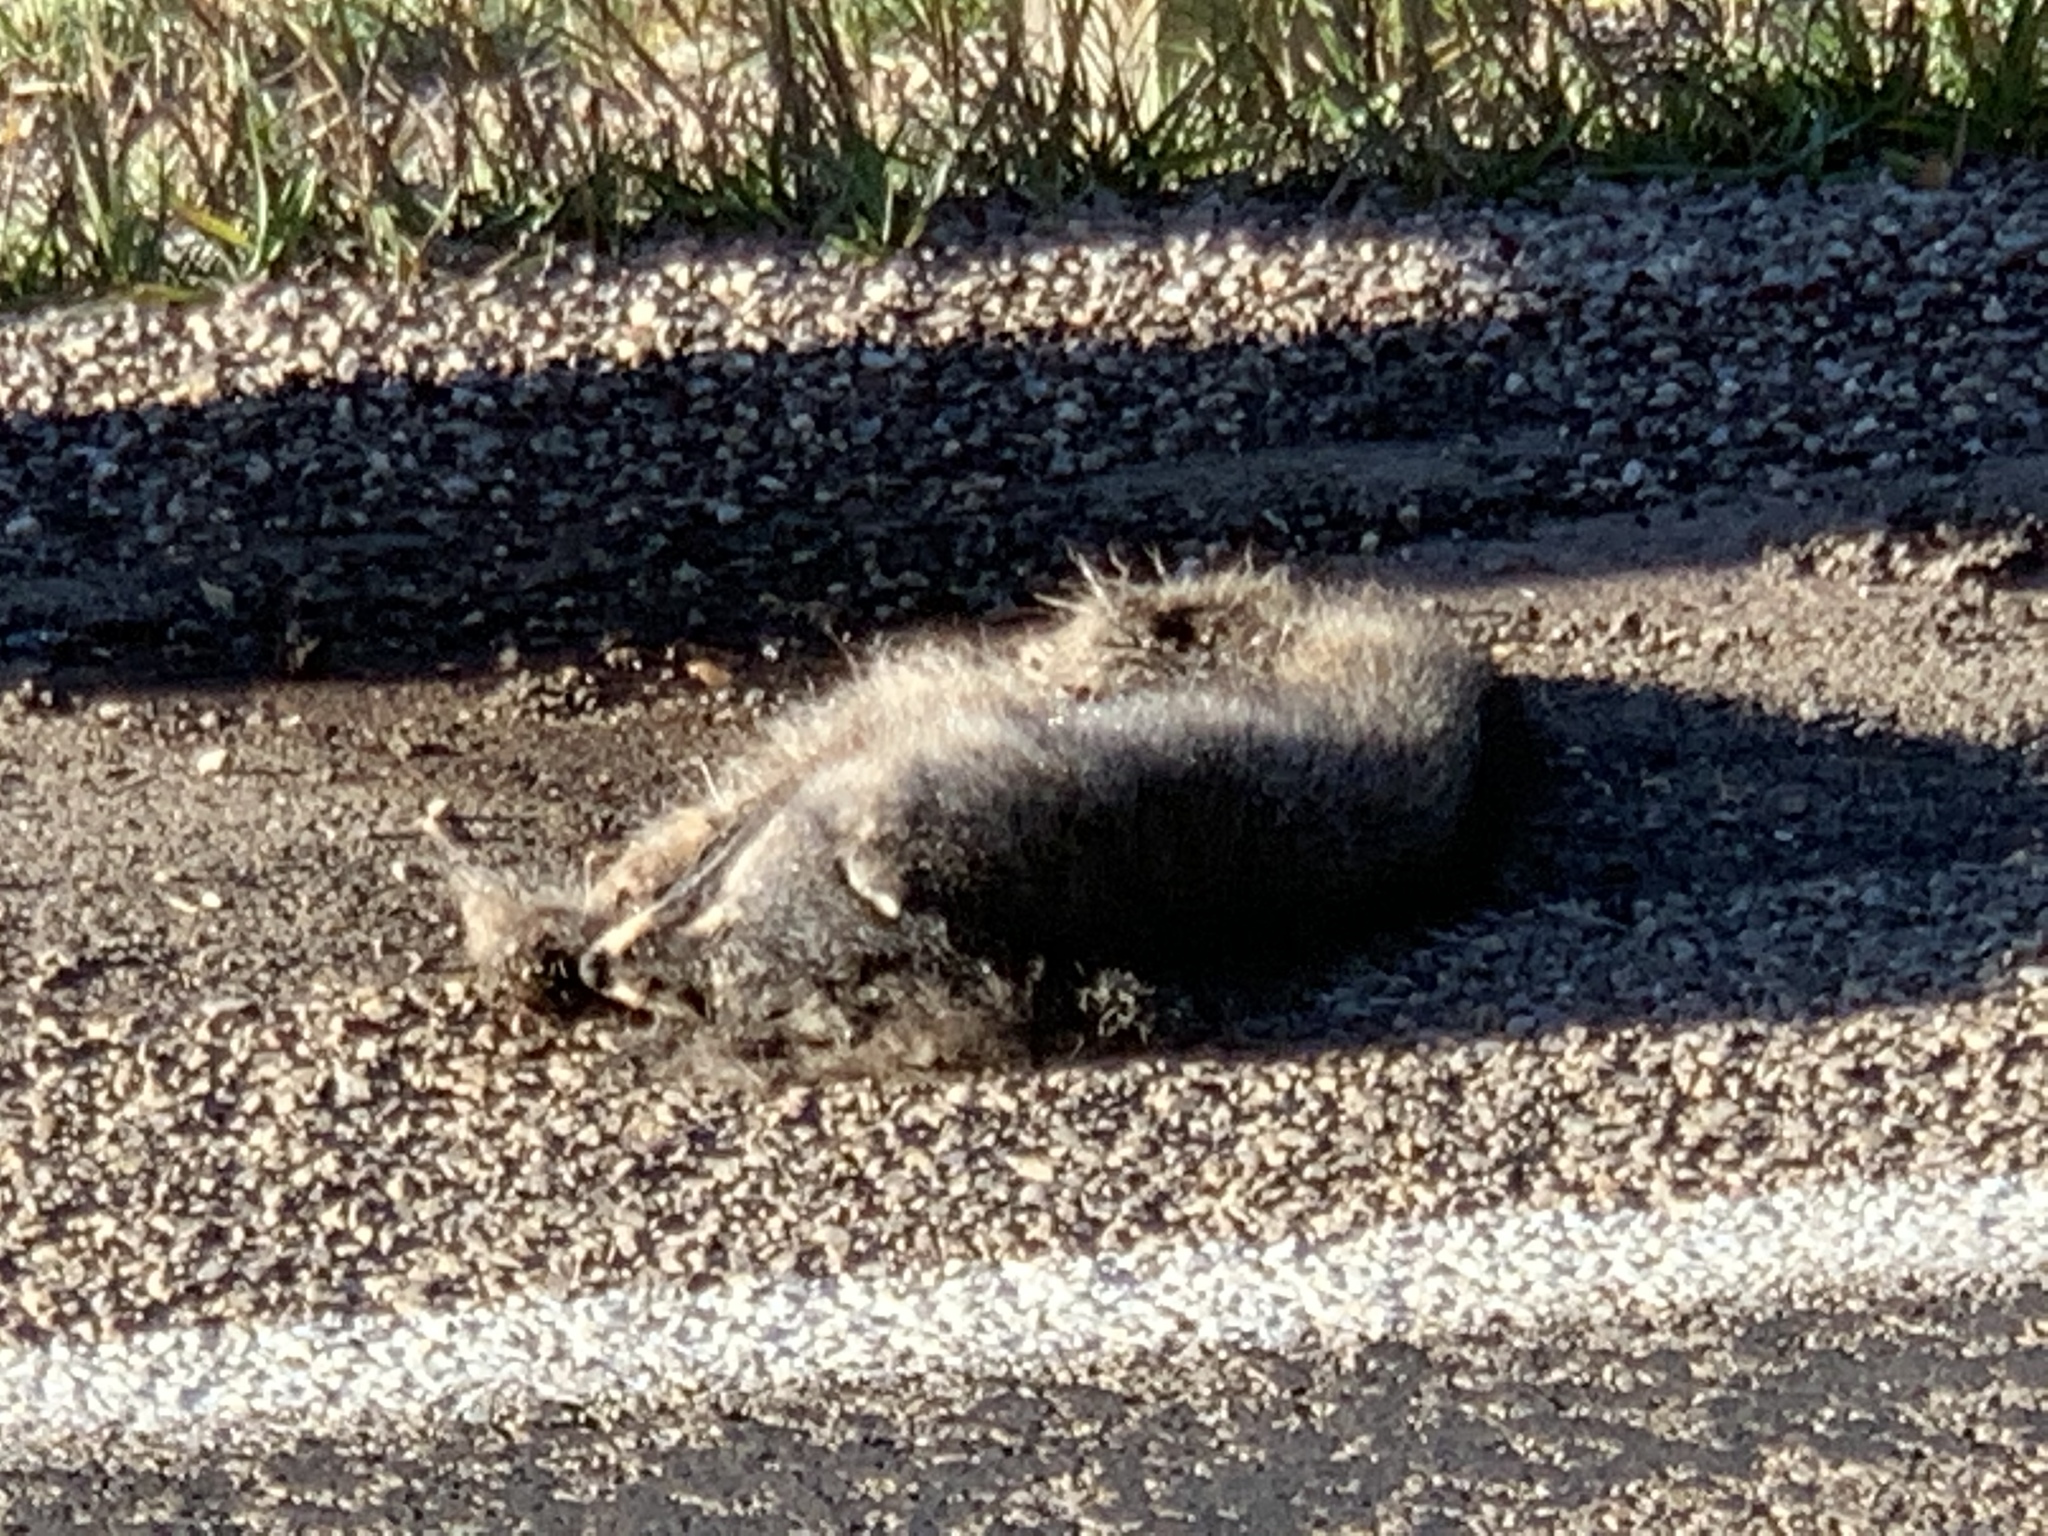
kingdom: Animalia
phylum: Chordata
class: Mammalia
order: Carnivora
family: Procyonidae
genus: Procyon
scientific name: Procyon lotor
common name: Raccoon
